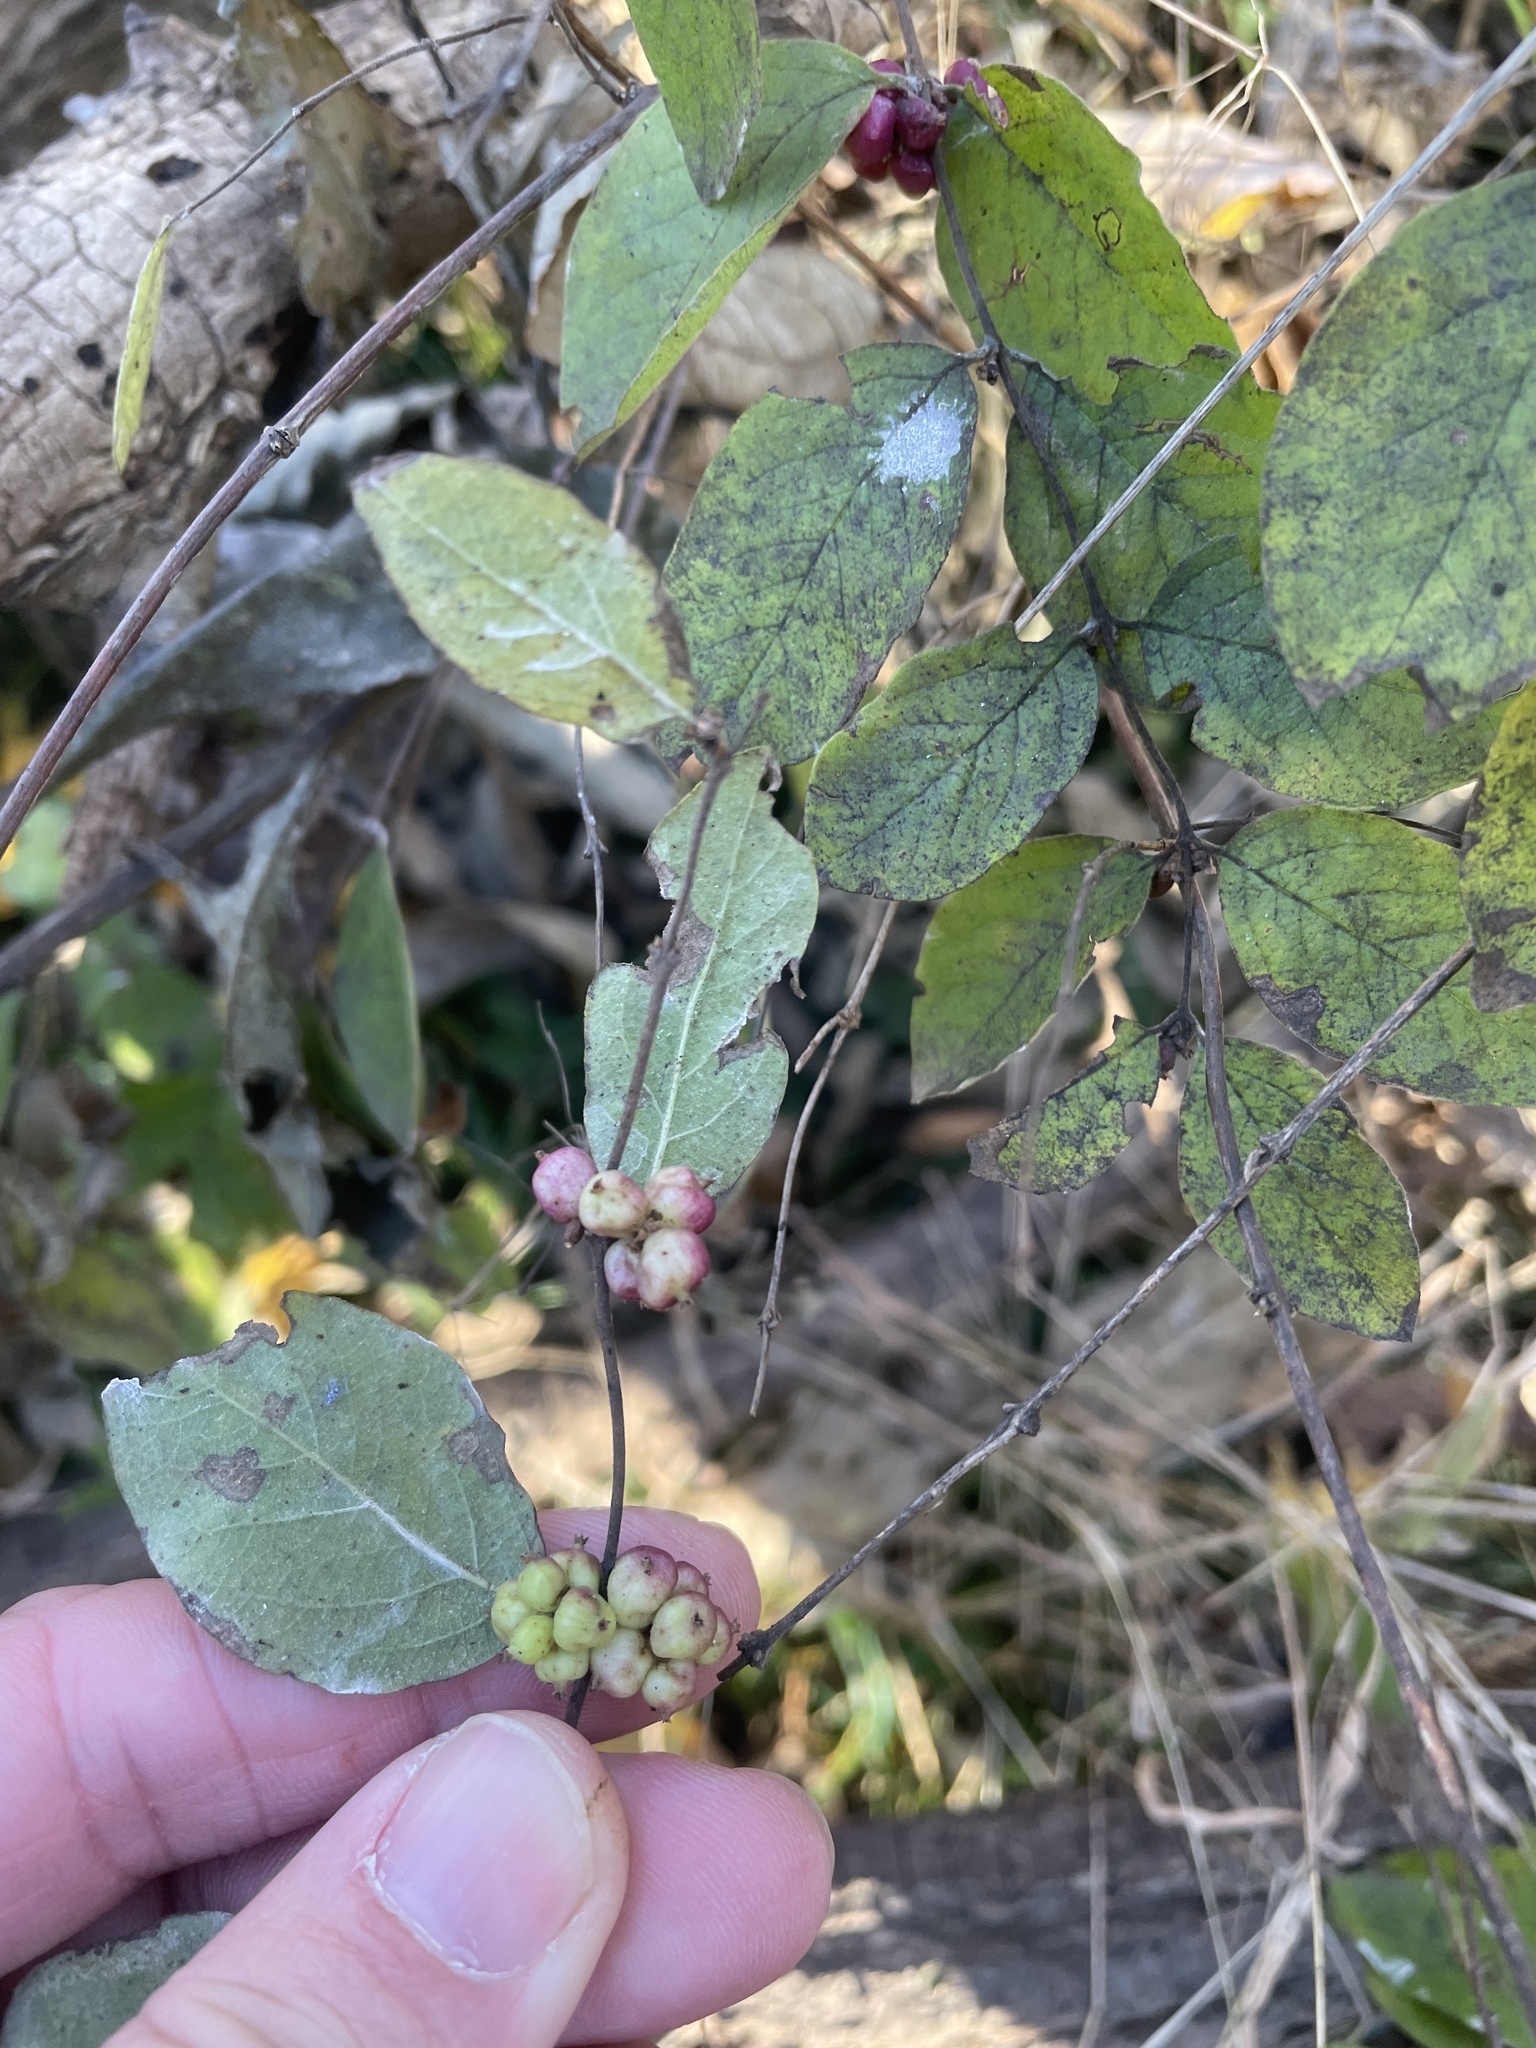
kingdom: Plantae
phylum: Tracheophyta
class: Magnoliopsida
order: Dipsacales
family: Caprifoliaceae
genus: Symphoricarpos
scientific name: Symphoricarpos orbiculatus
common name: Coralberry
